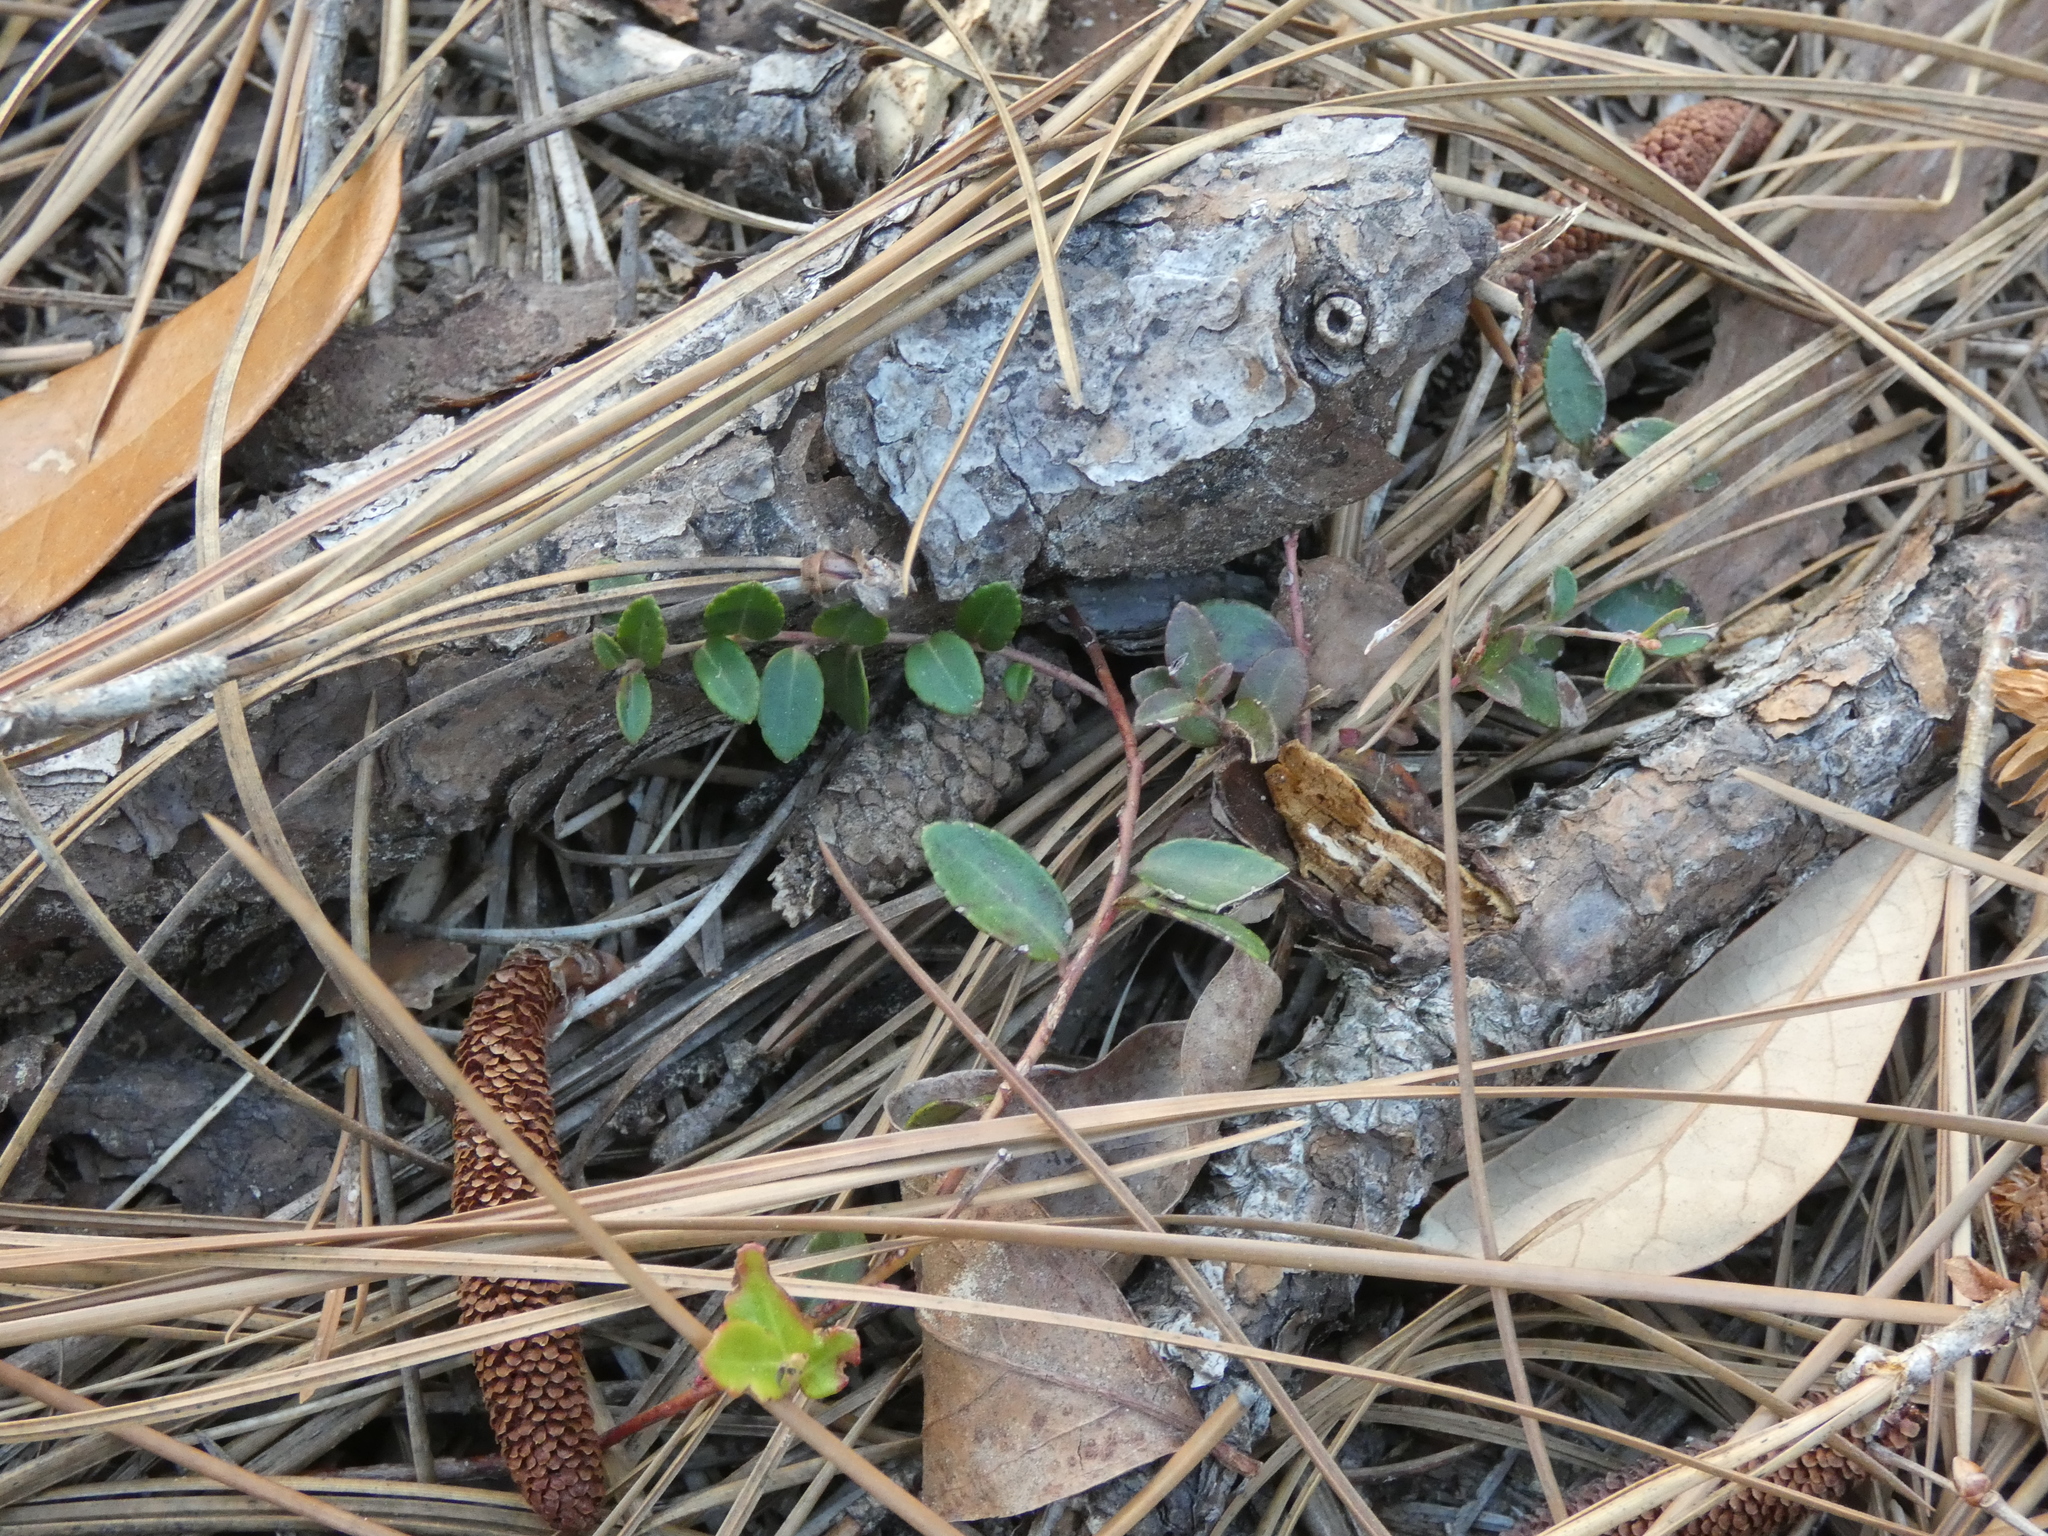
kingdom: Plantae
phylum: Tracheophyta
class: Magnoliopsida
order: Ericales
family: Ericaceae
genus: Vaccinium
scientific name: Vaccinium crassifolium
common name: Creeping blueberry
